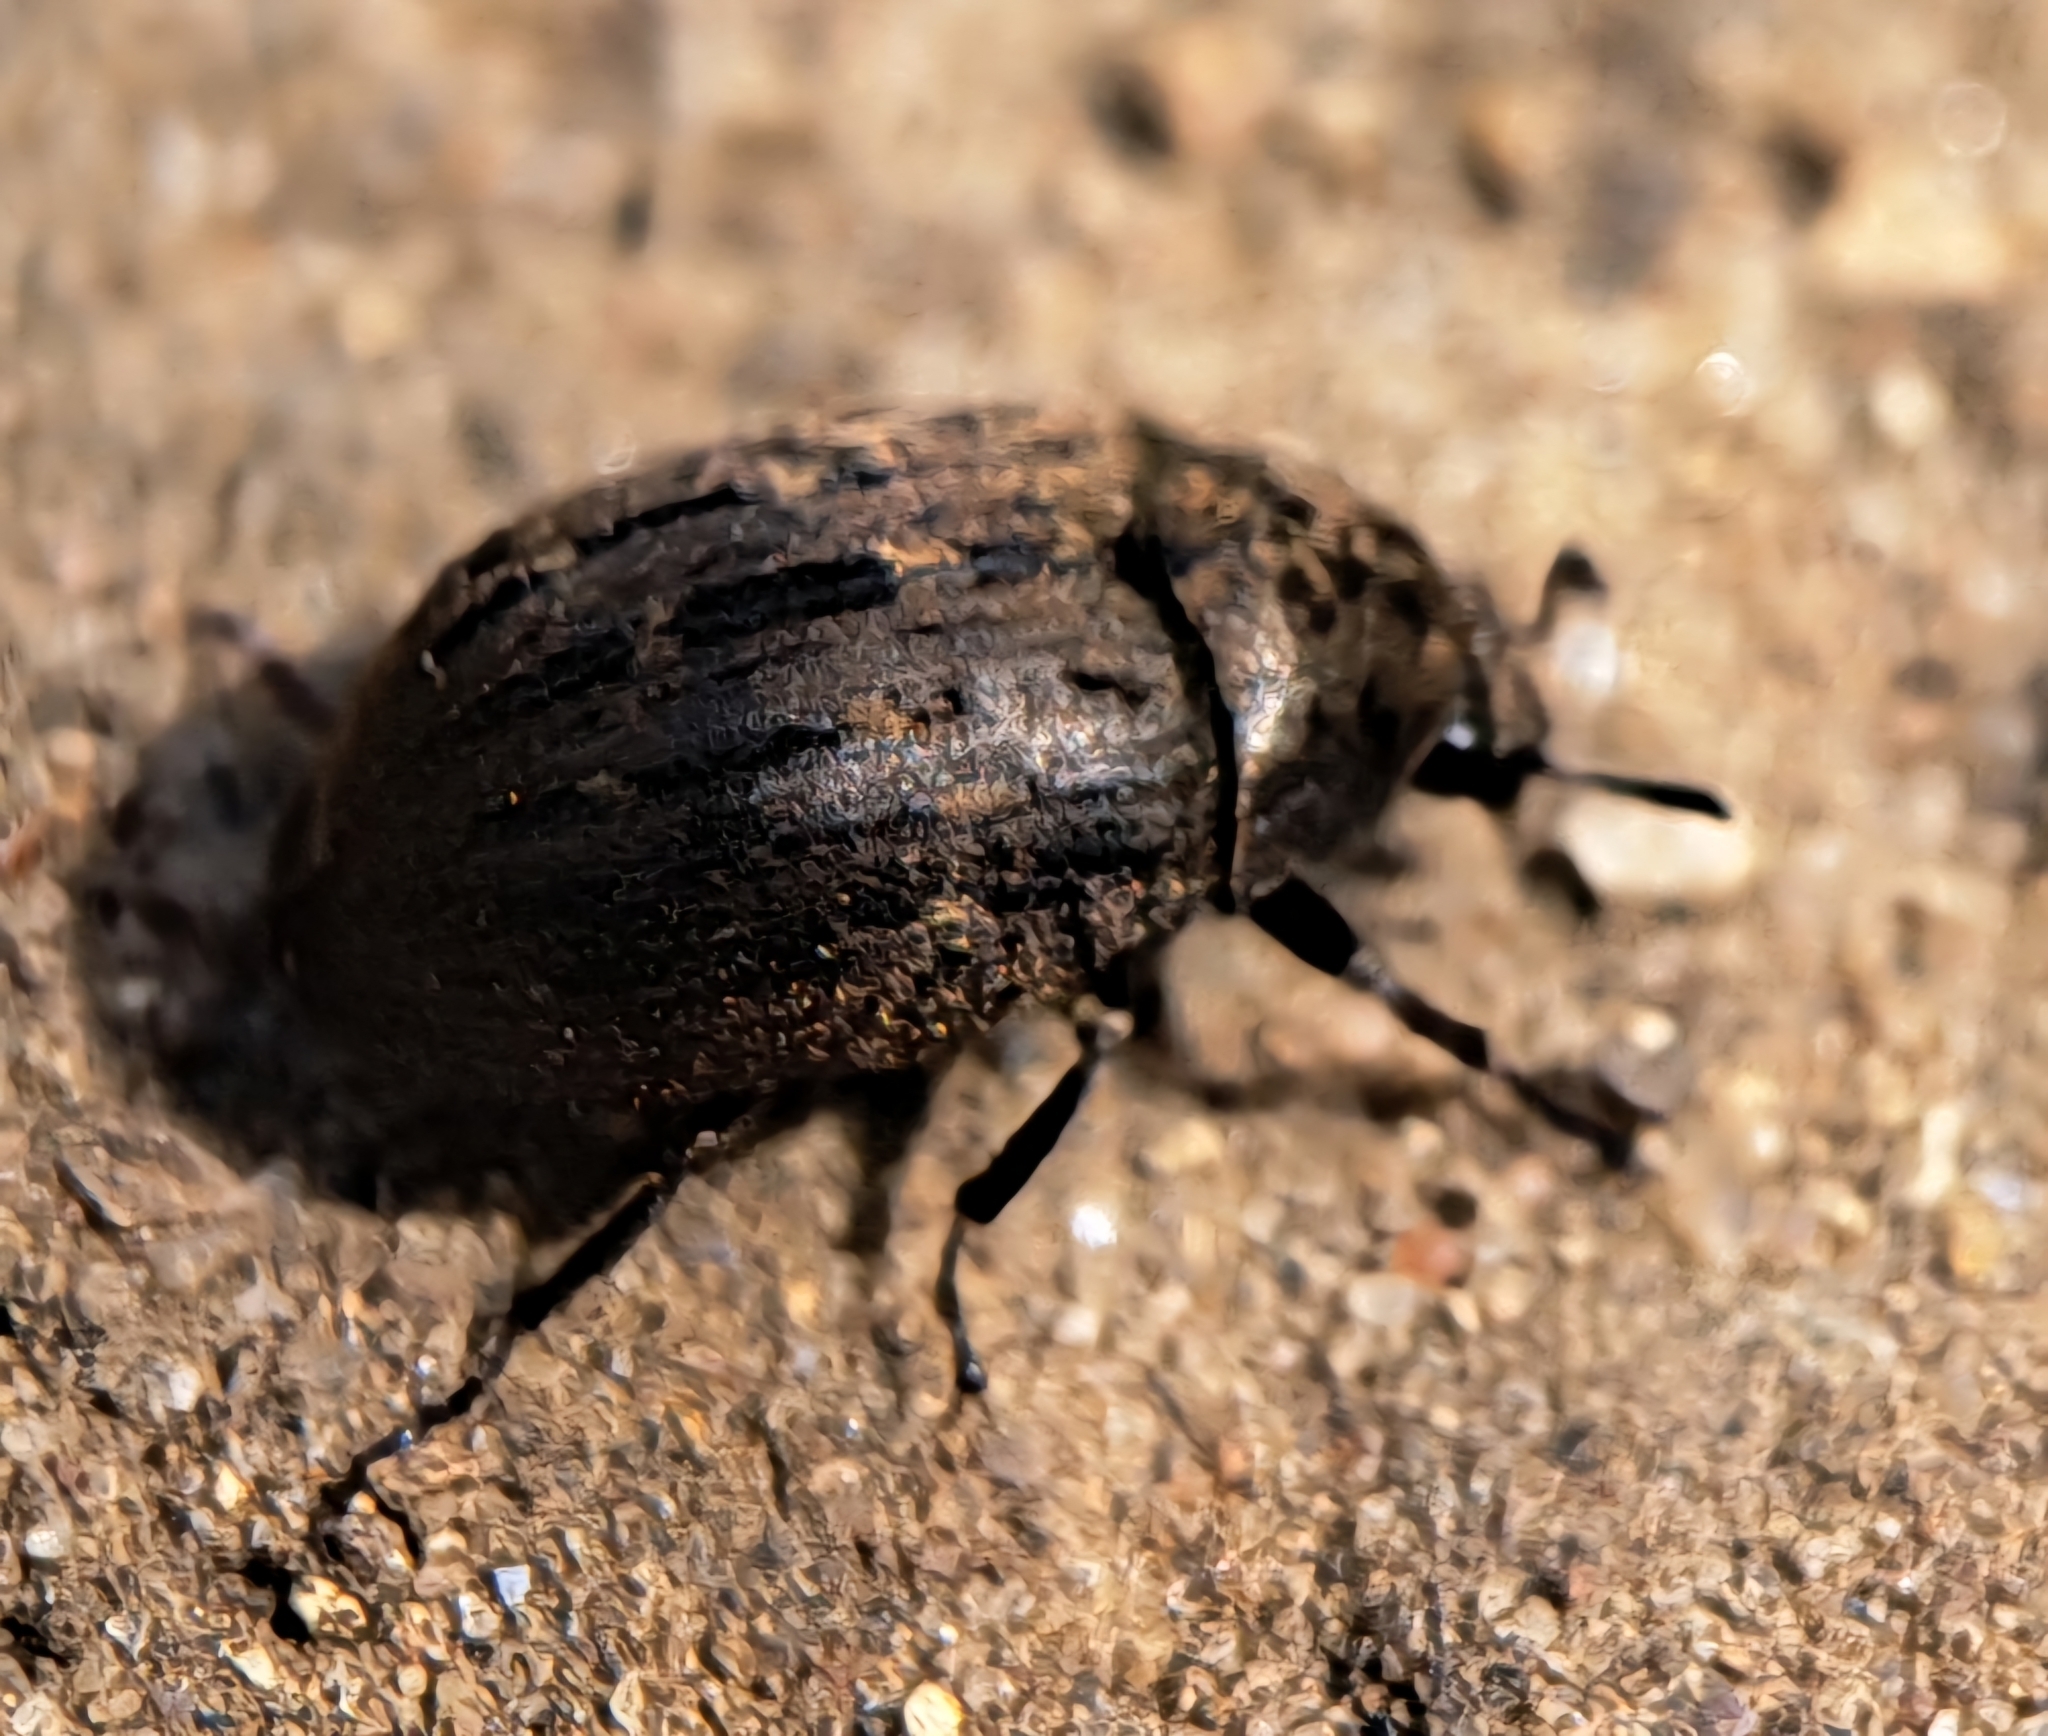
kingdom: Animalia
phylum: Arthropoda
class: Insecta
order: Coleoptera
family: Byrrhidae
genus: Byrrhus
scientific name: Byrrhus pilula
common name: Pill beetle
